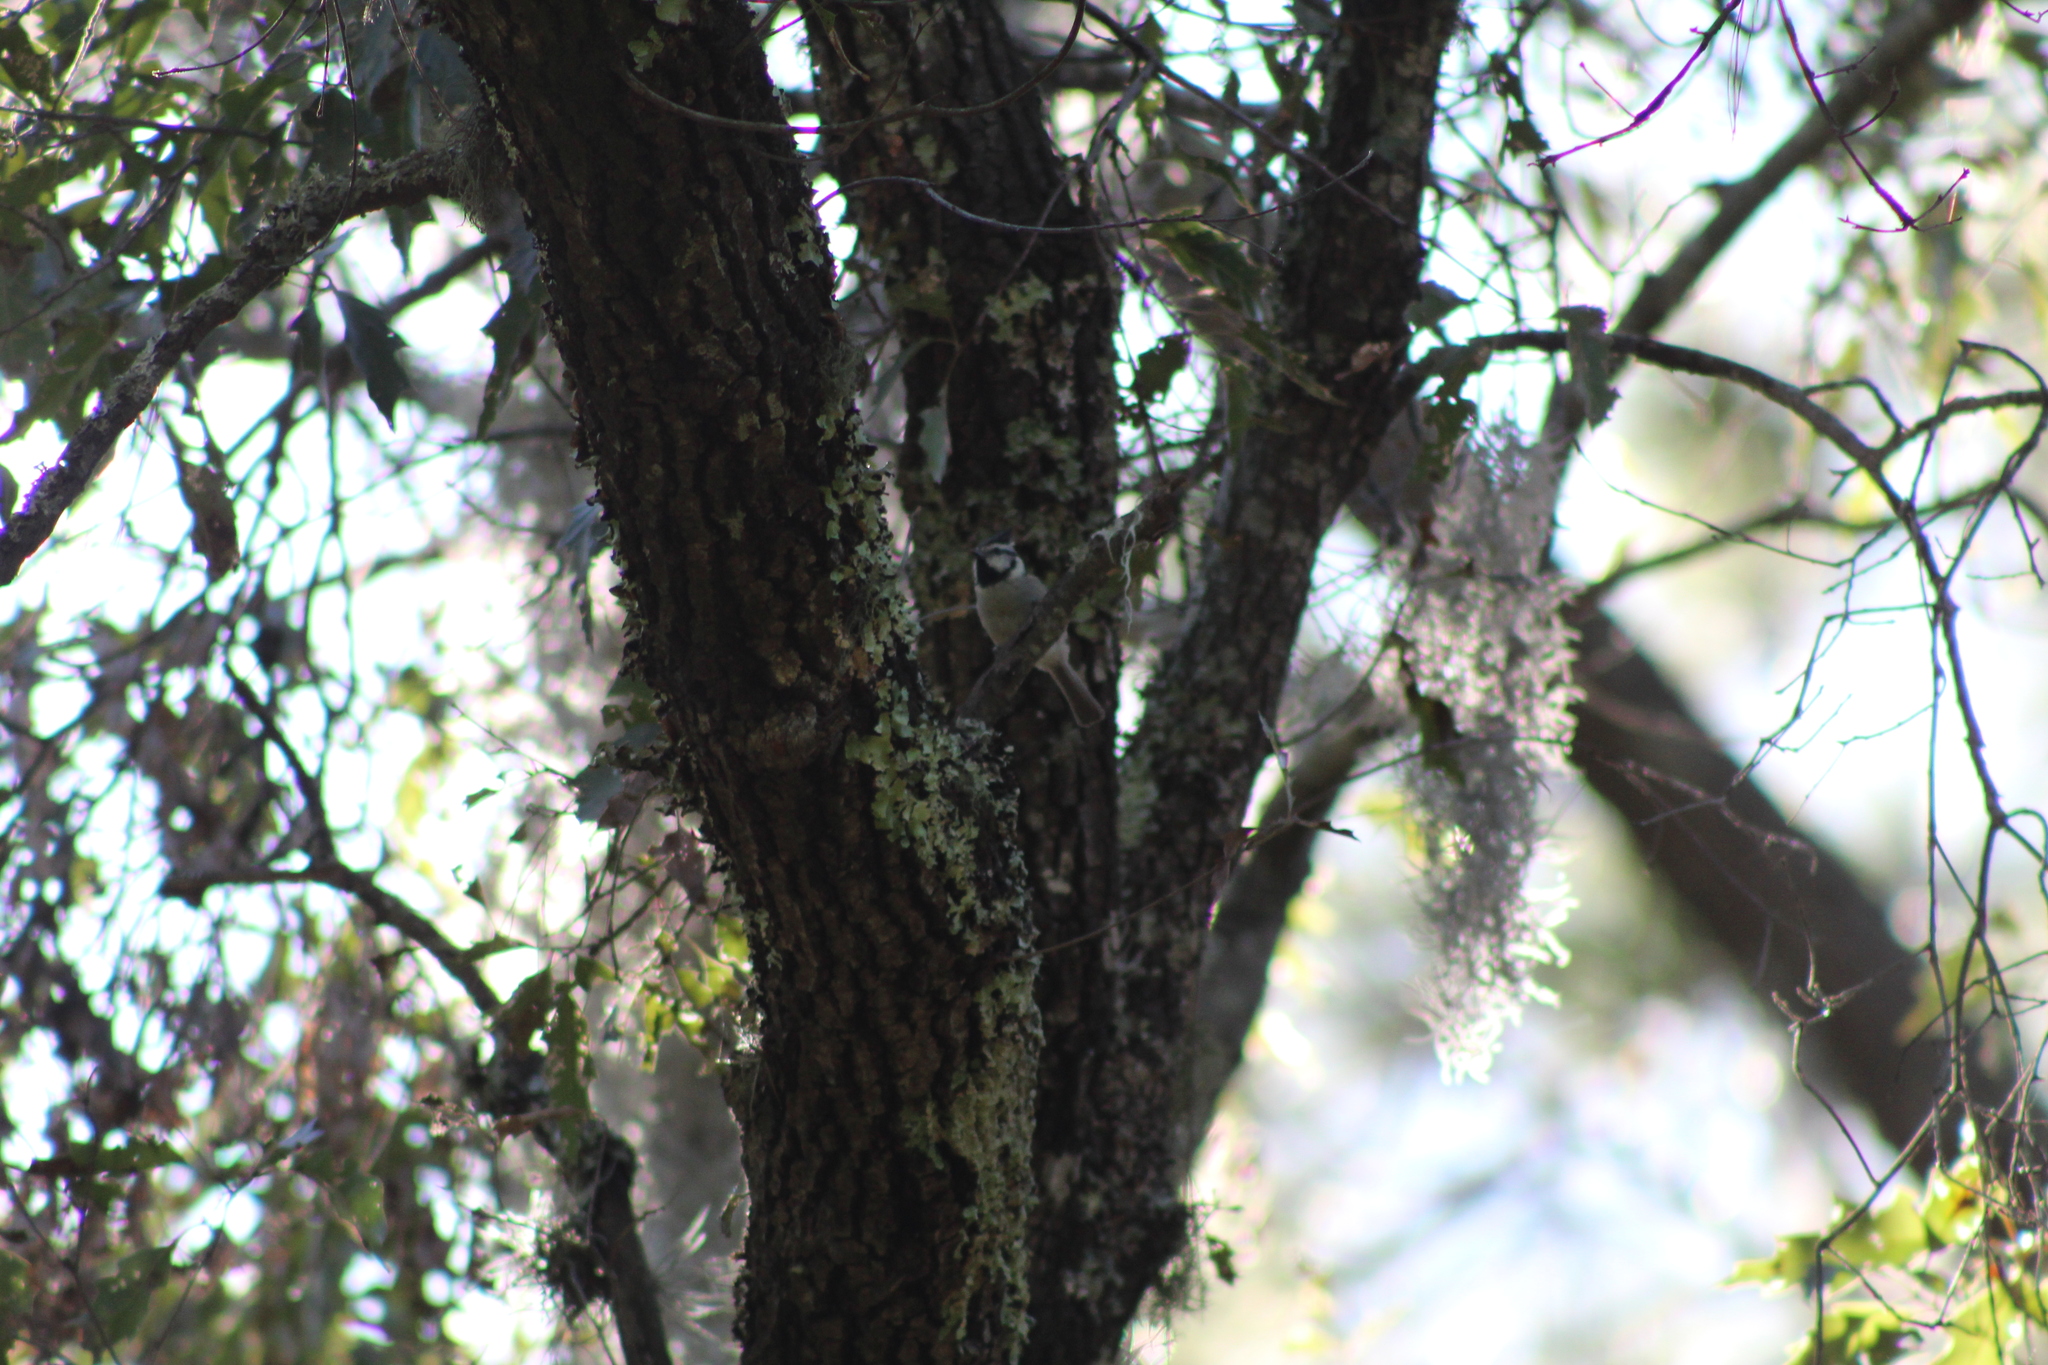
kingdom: Animalia
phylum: Chordata
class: Aves
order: Passeriformes
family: Paridae
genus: Baeolophus
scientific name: Baeolophus wollweberi
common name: Bridled titmouse
